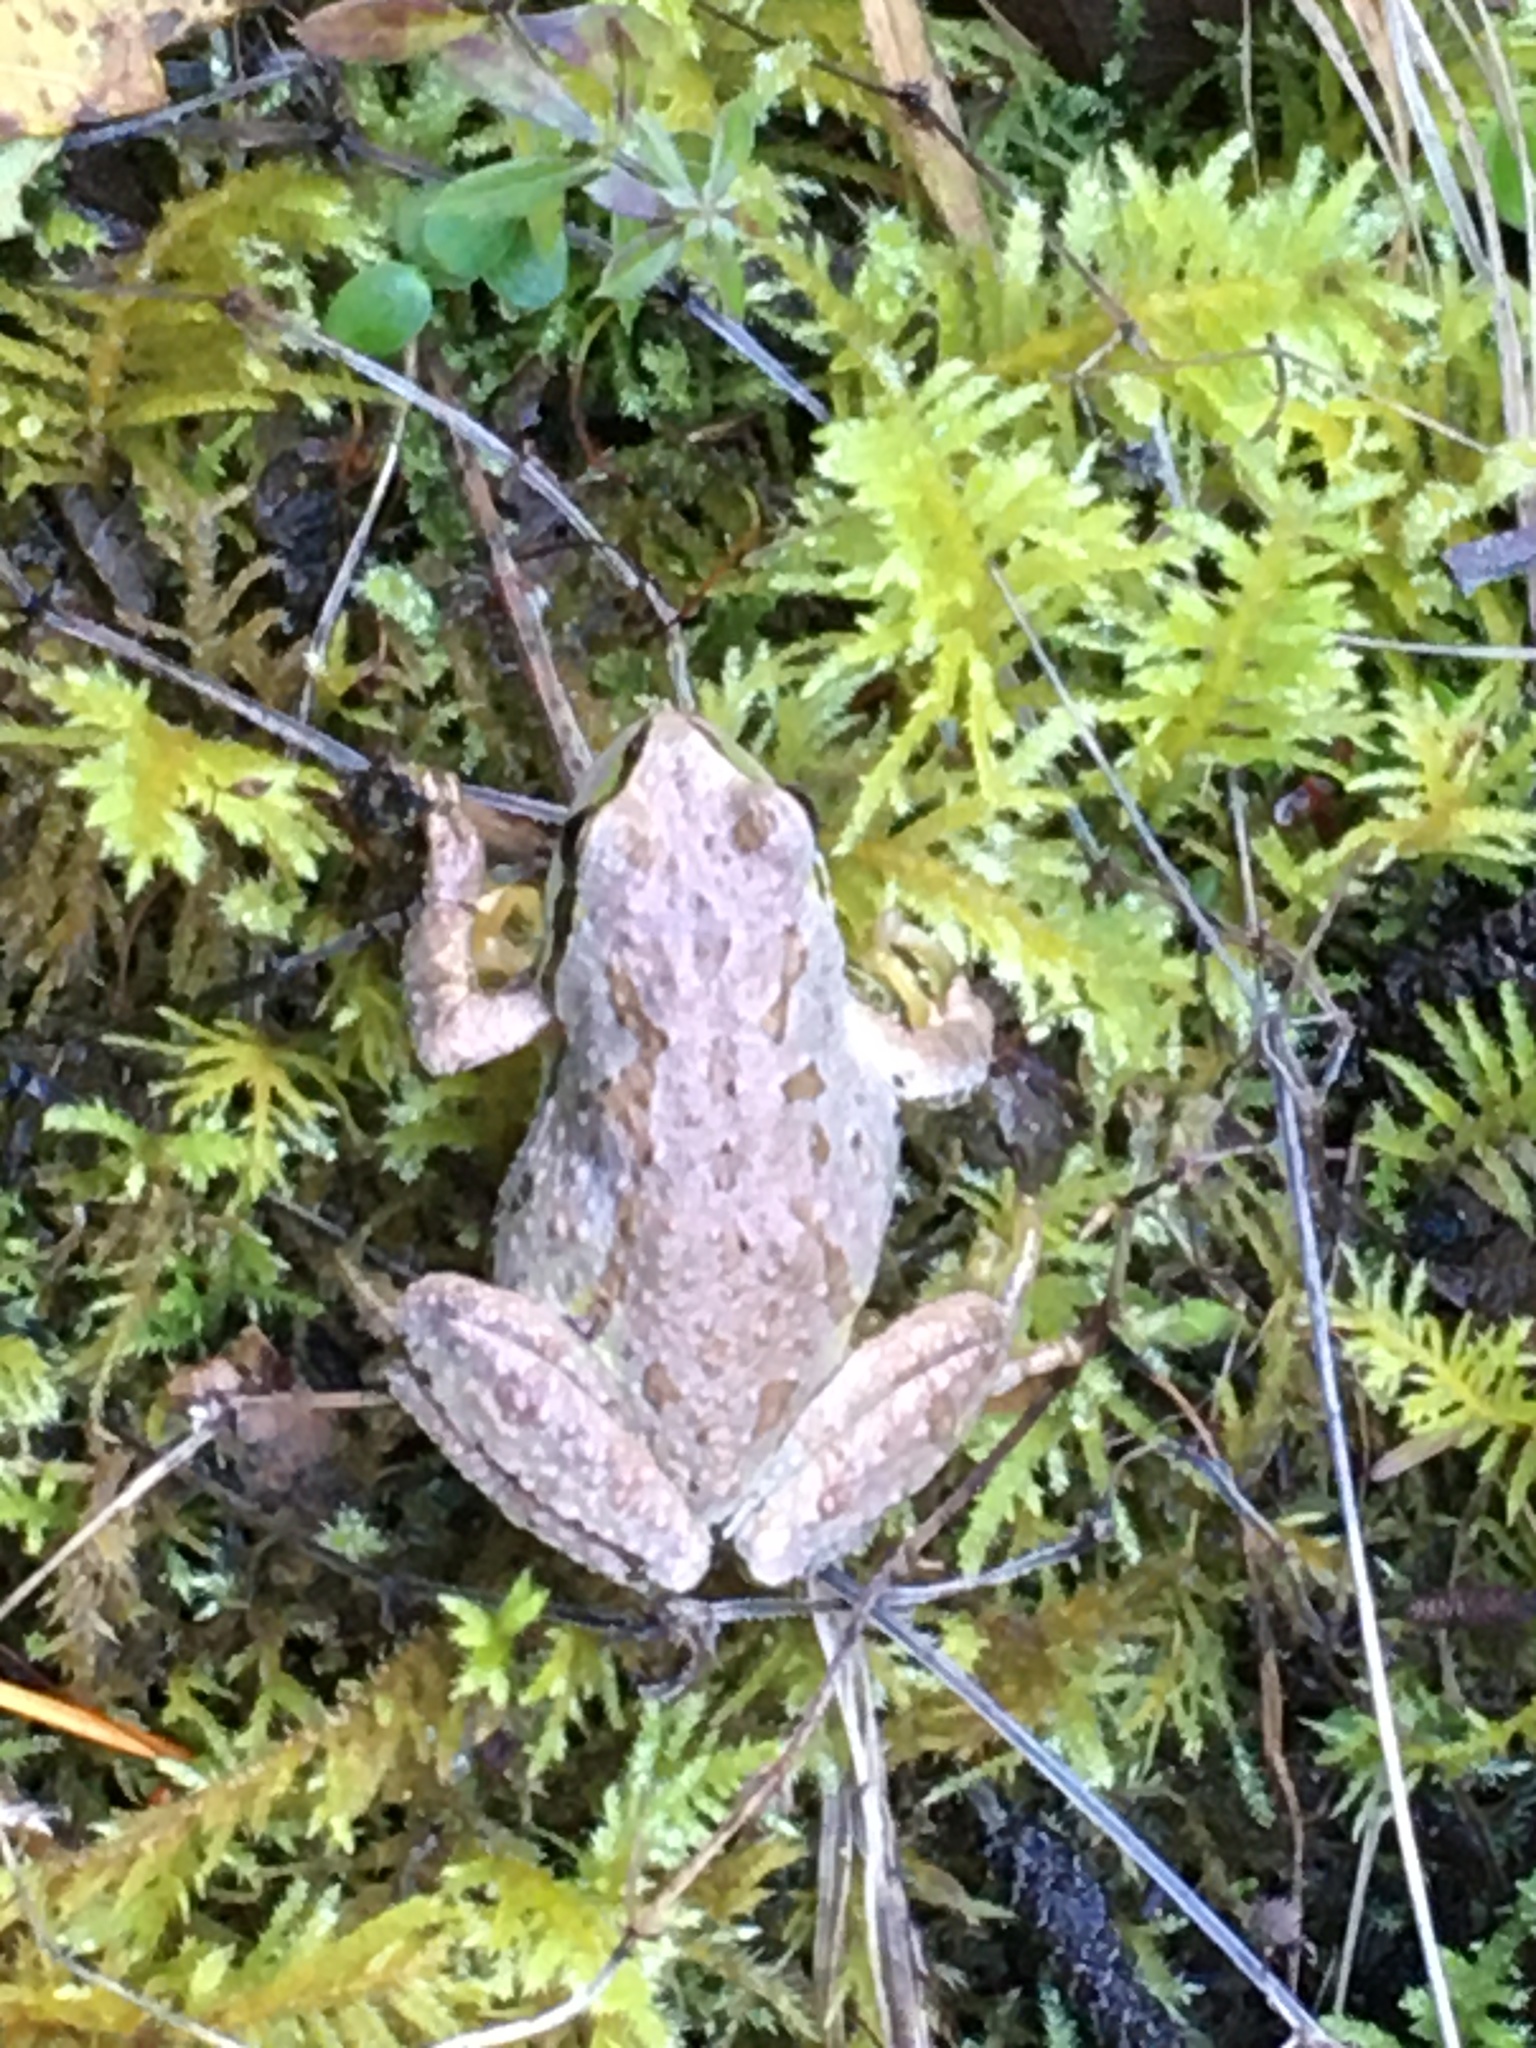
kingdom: Animalia
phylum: Chordata
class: Amphibia
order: Anura
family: Hylidae
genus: Pseudacris
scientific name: Pseudacris regilla
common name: Pacific chorus frog
